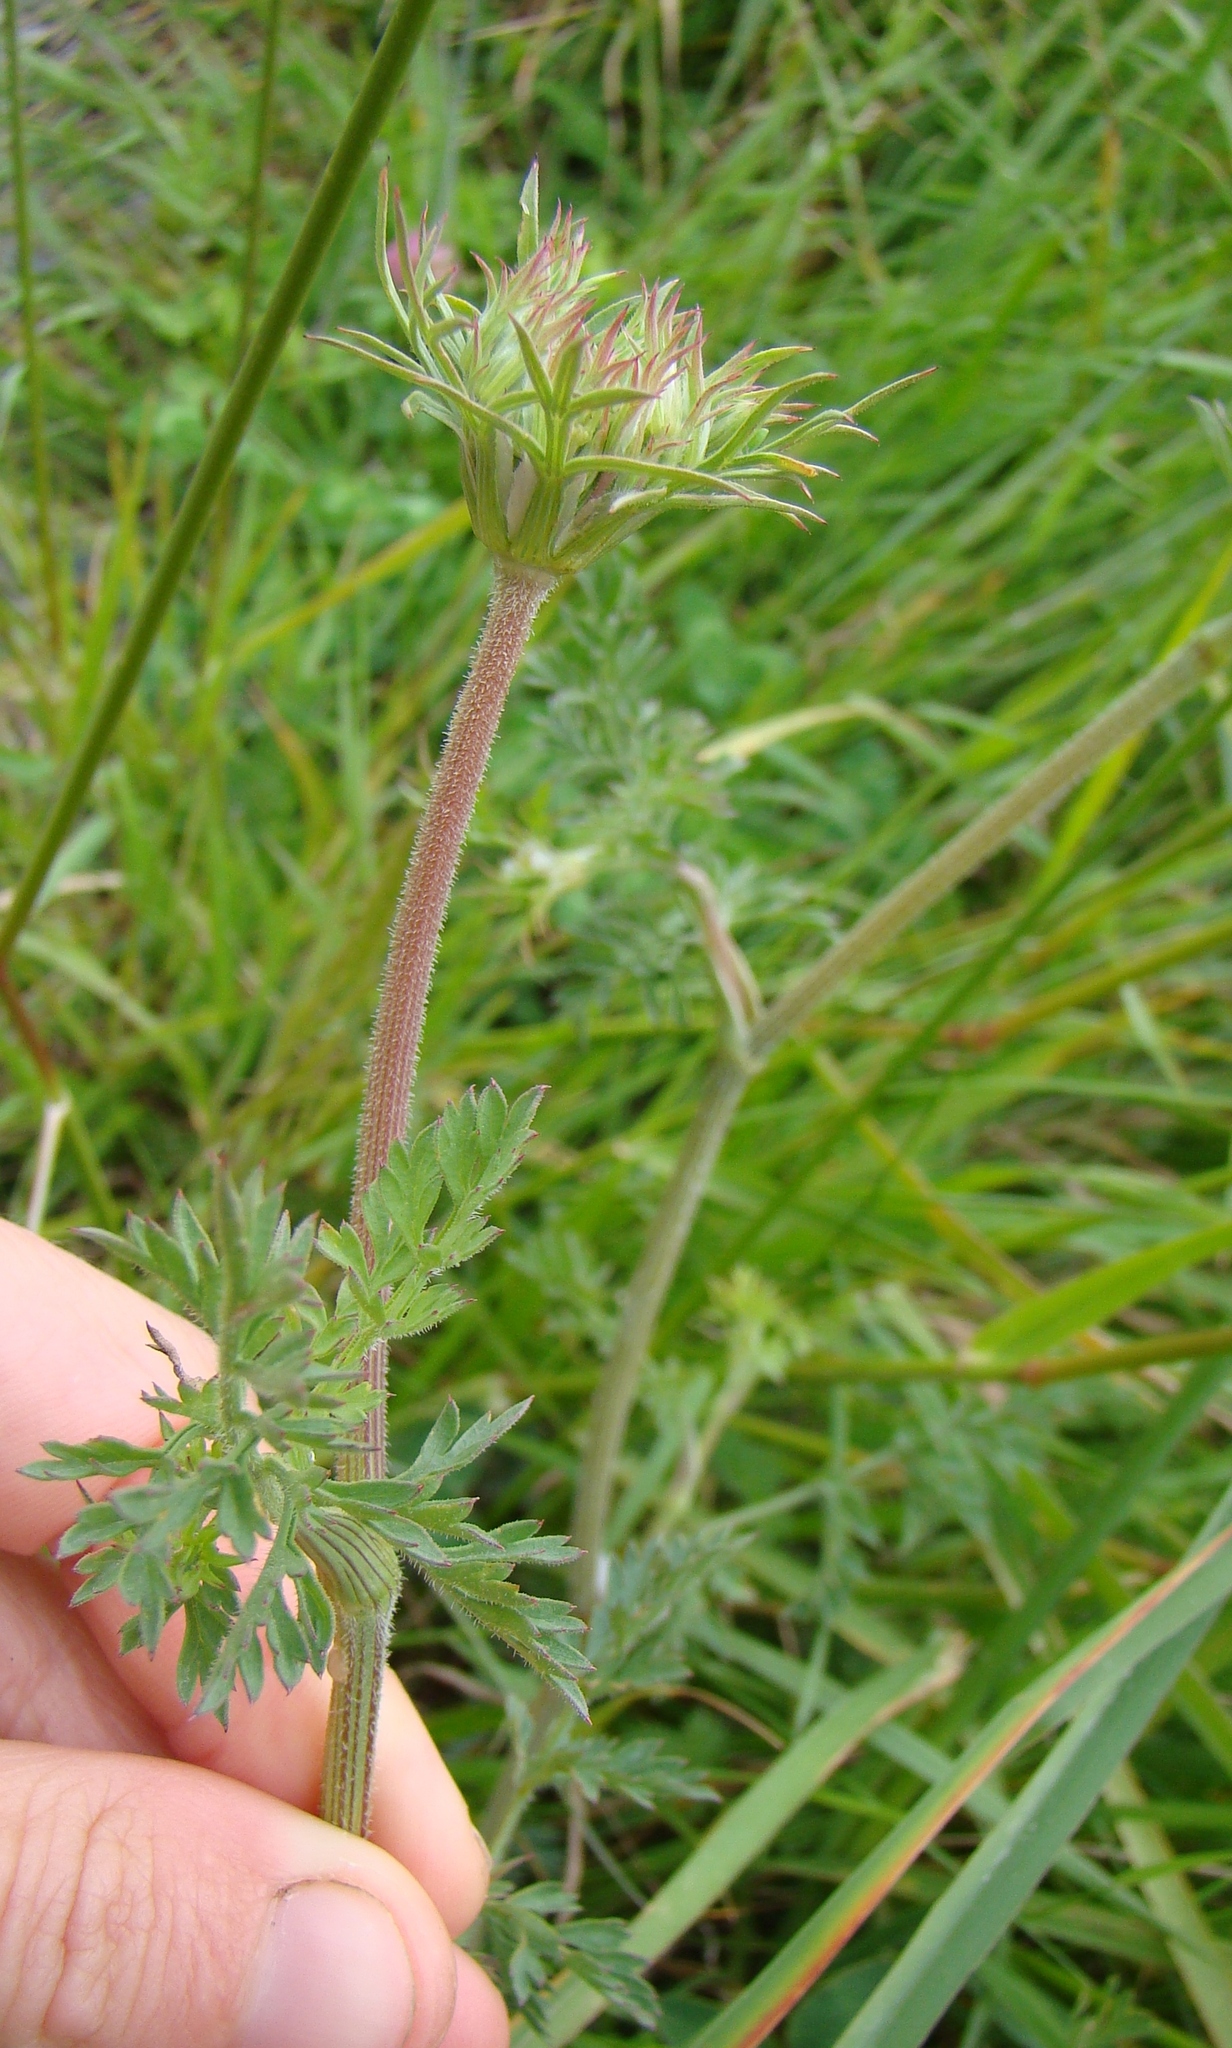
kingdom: Plantae
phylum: Tracheophyta
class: Magnoliopsida
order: Apiales
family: Apiaceae
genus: Daucus
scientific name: Daucus carota
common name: Wild carrot
